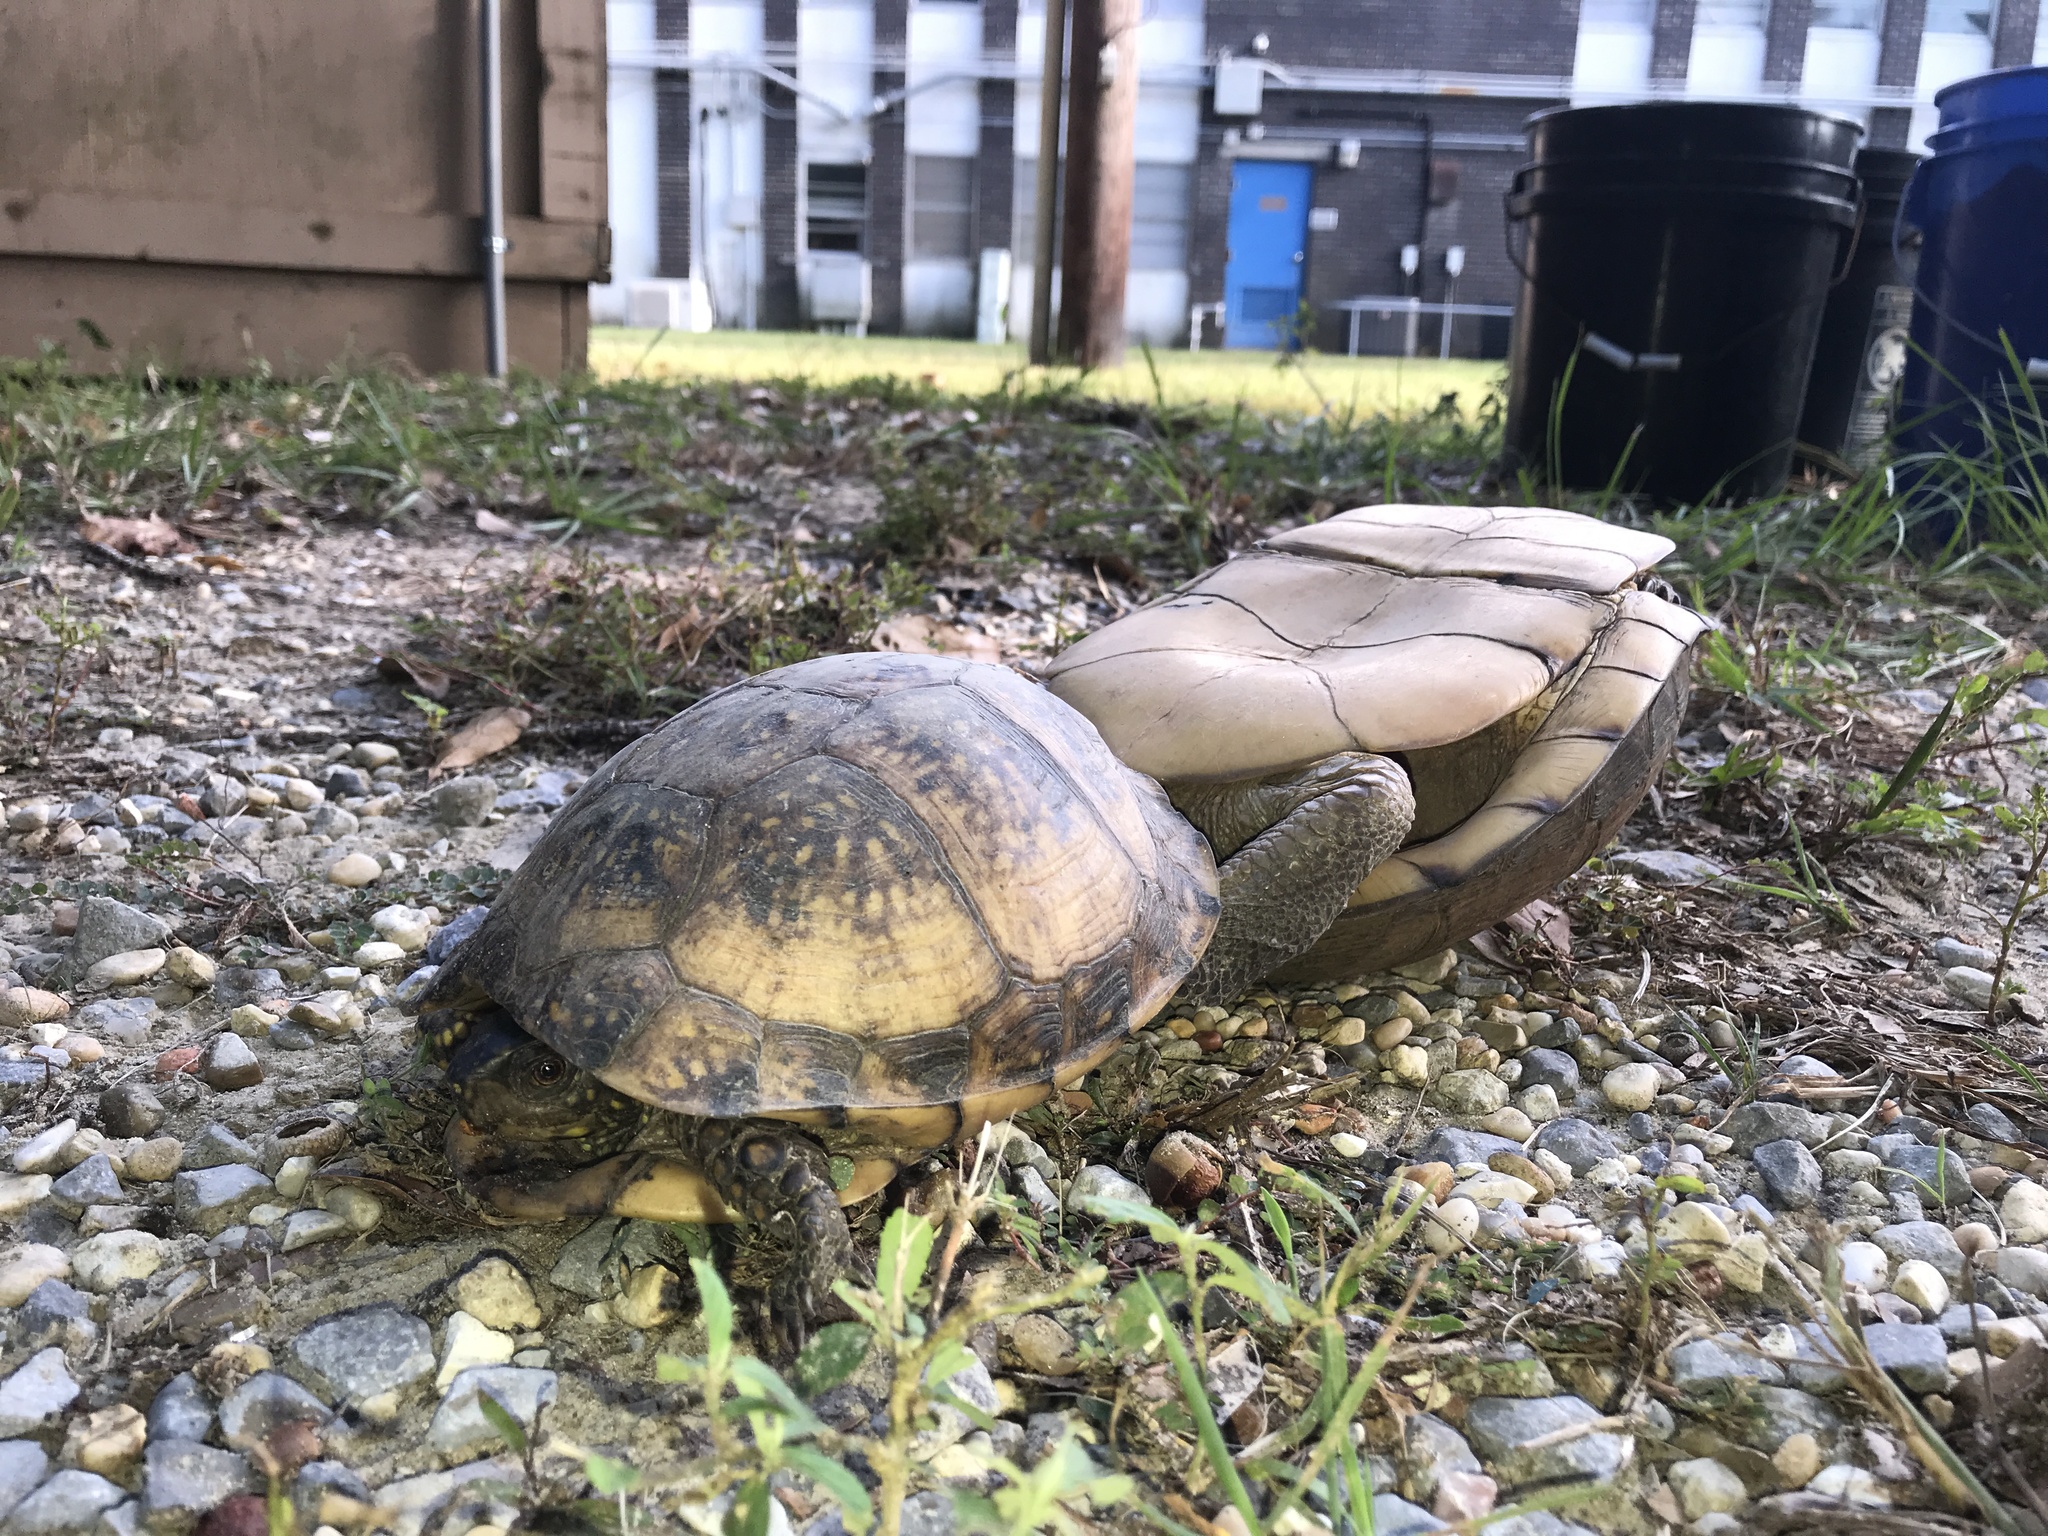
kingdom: Animalia
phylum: Chordata
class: Testudines
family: Emydidae
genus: Terrapene
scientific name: Terrapene carolina
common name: Common box turtle
